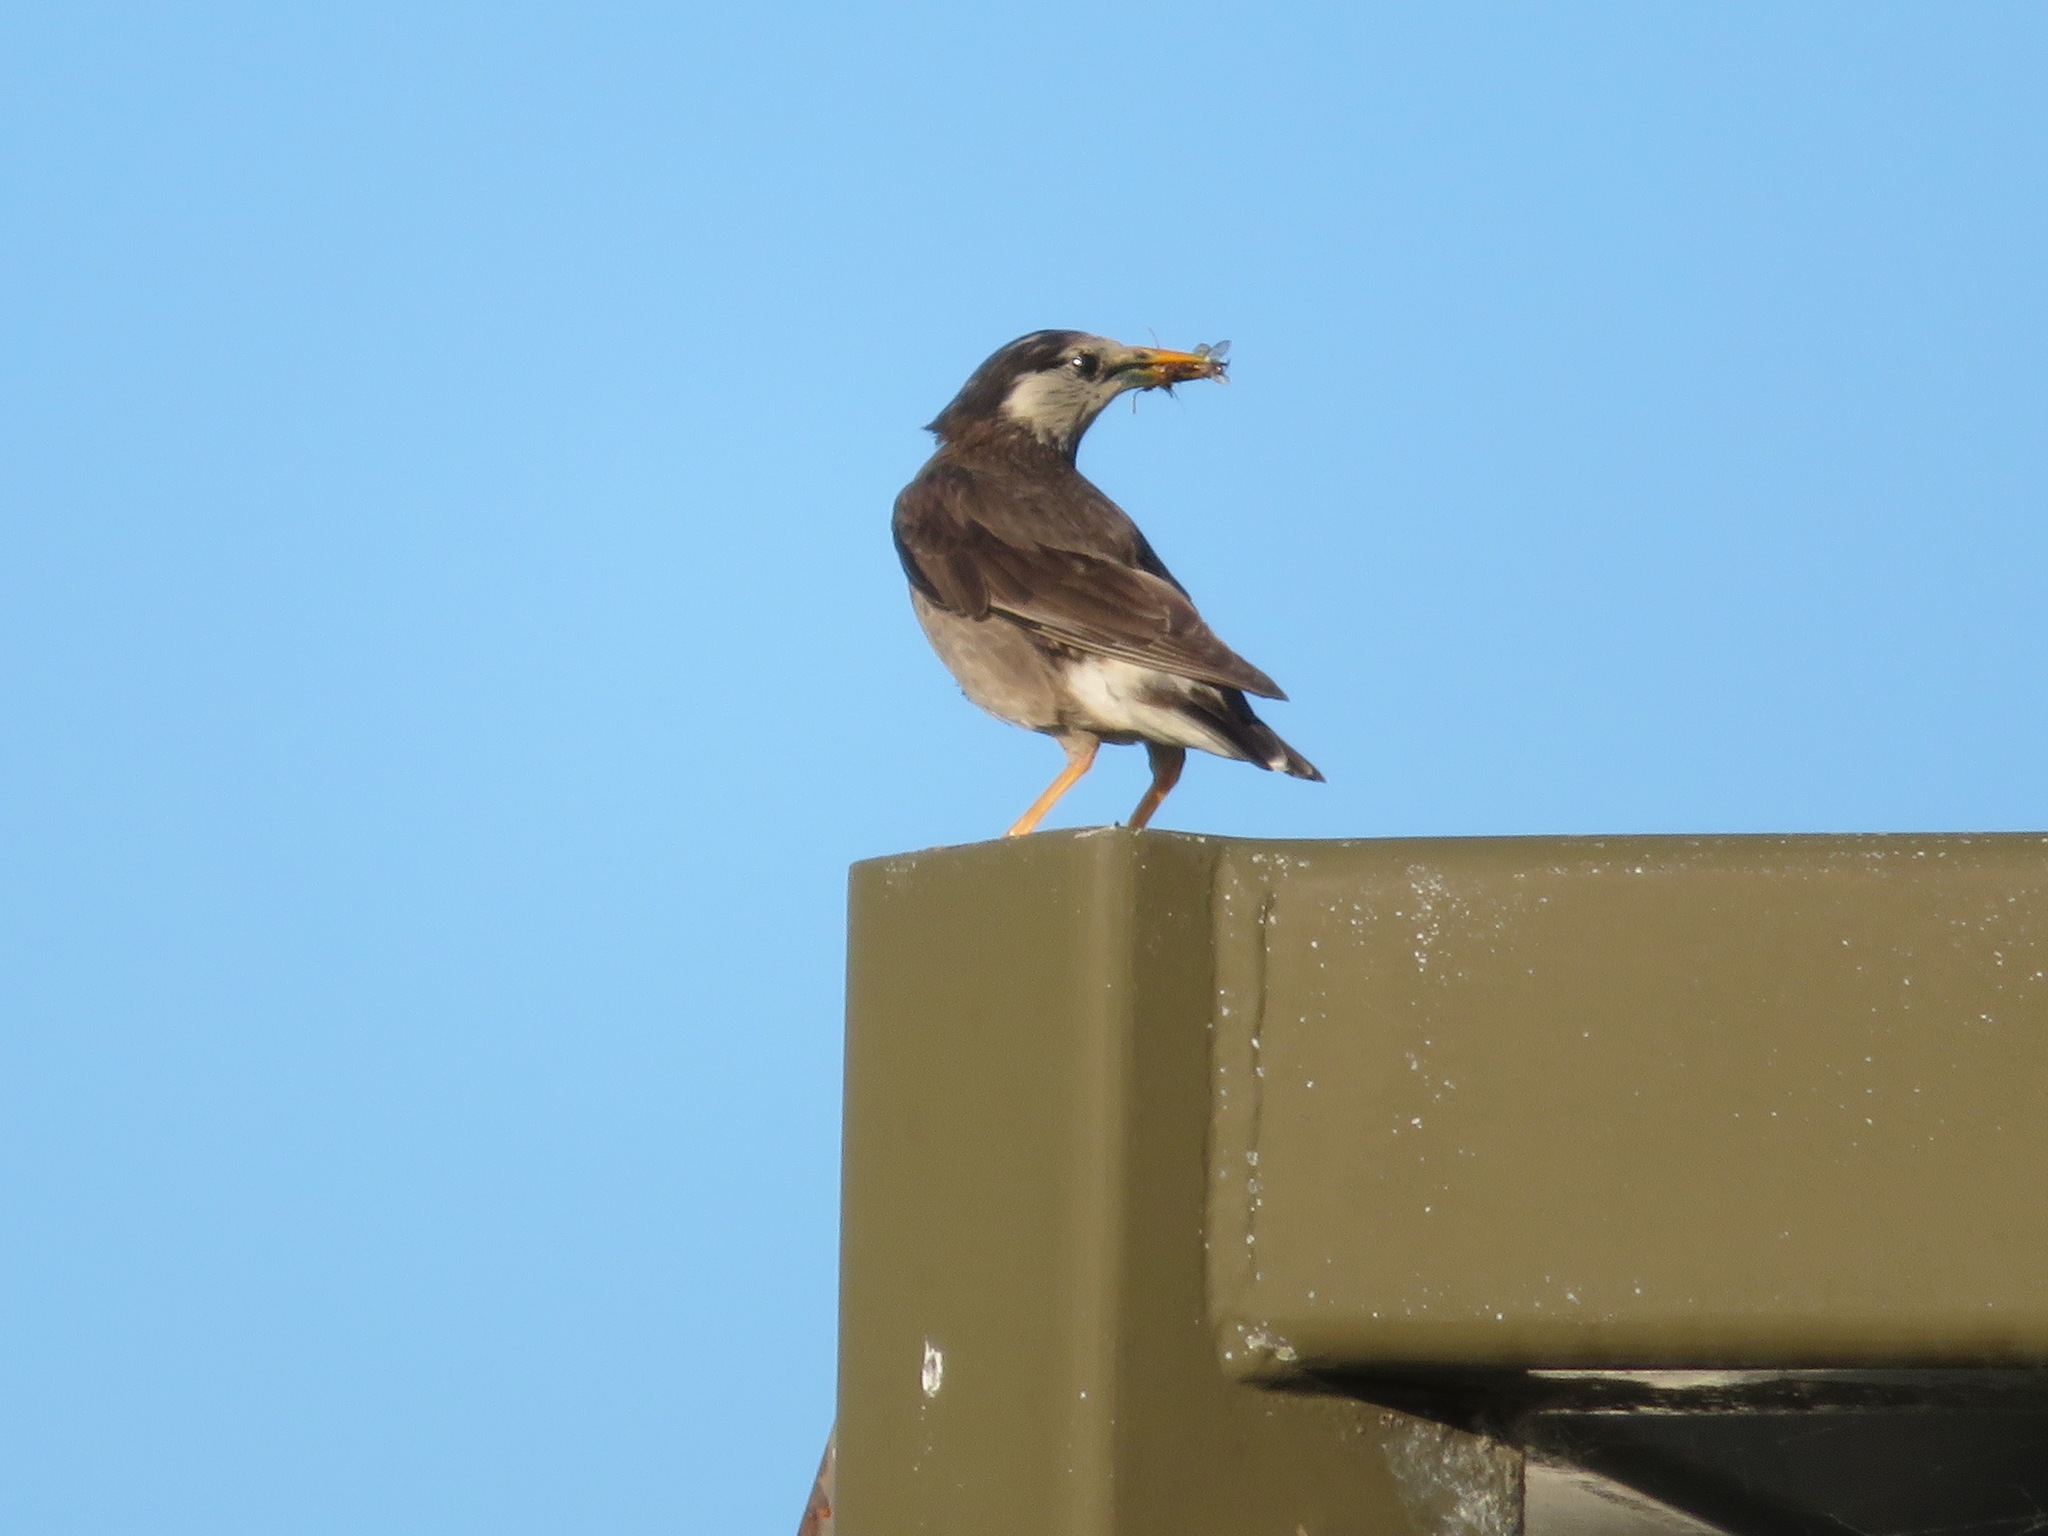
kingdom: Animalia
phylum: Chordata
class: Aves
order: Passeriformes
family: Sturnidae
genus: Spodiopsar
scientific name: Spodiopsar cineraceus
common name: White-cheeked starling
